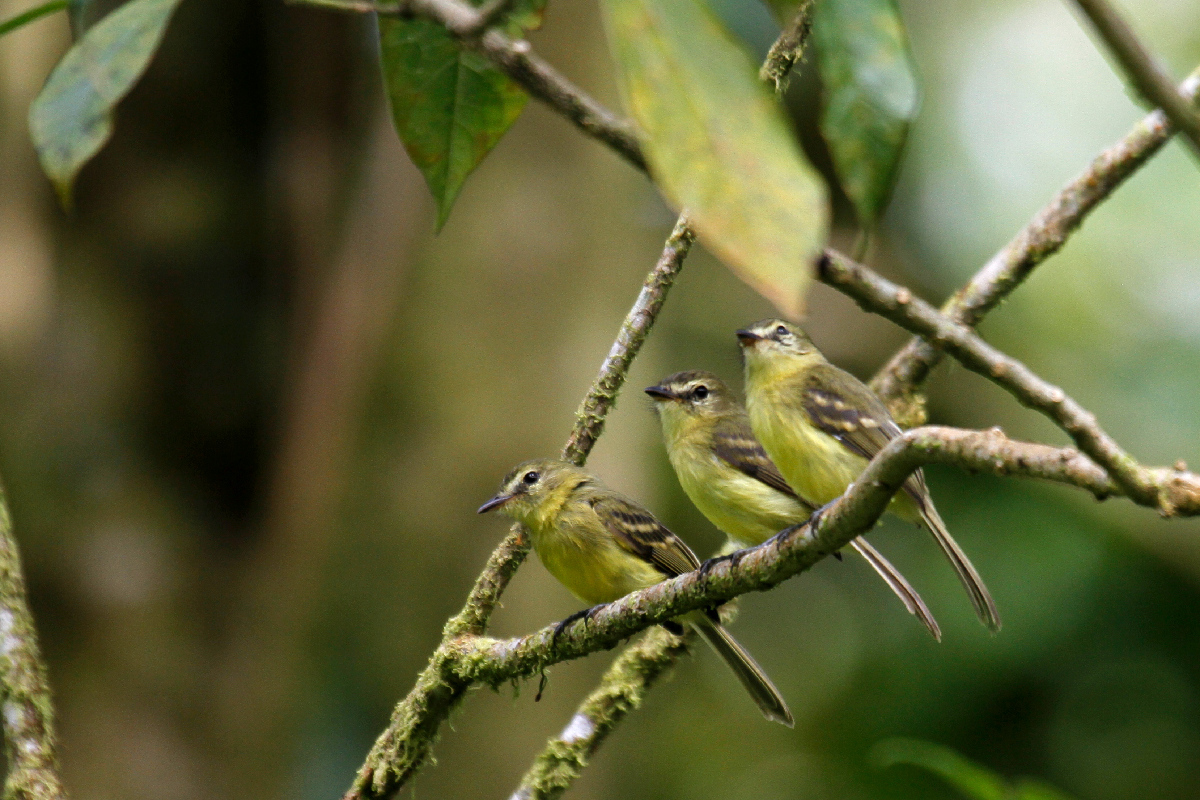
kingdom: Animalia
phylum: Chordata
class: Aves
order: Passeriformes
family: Tyrannidae
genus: Capsiempis
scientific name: Capsiempis flaveola
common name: Yellow tyrannulet
